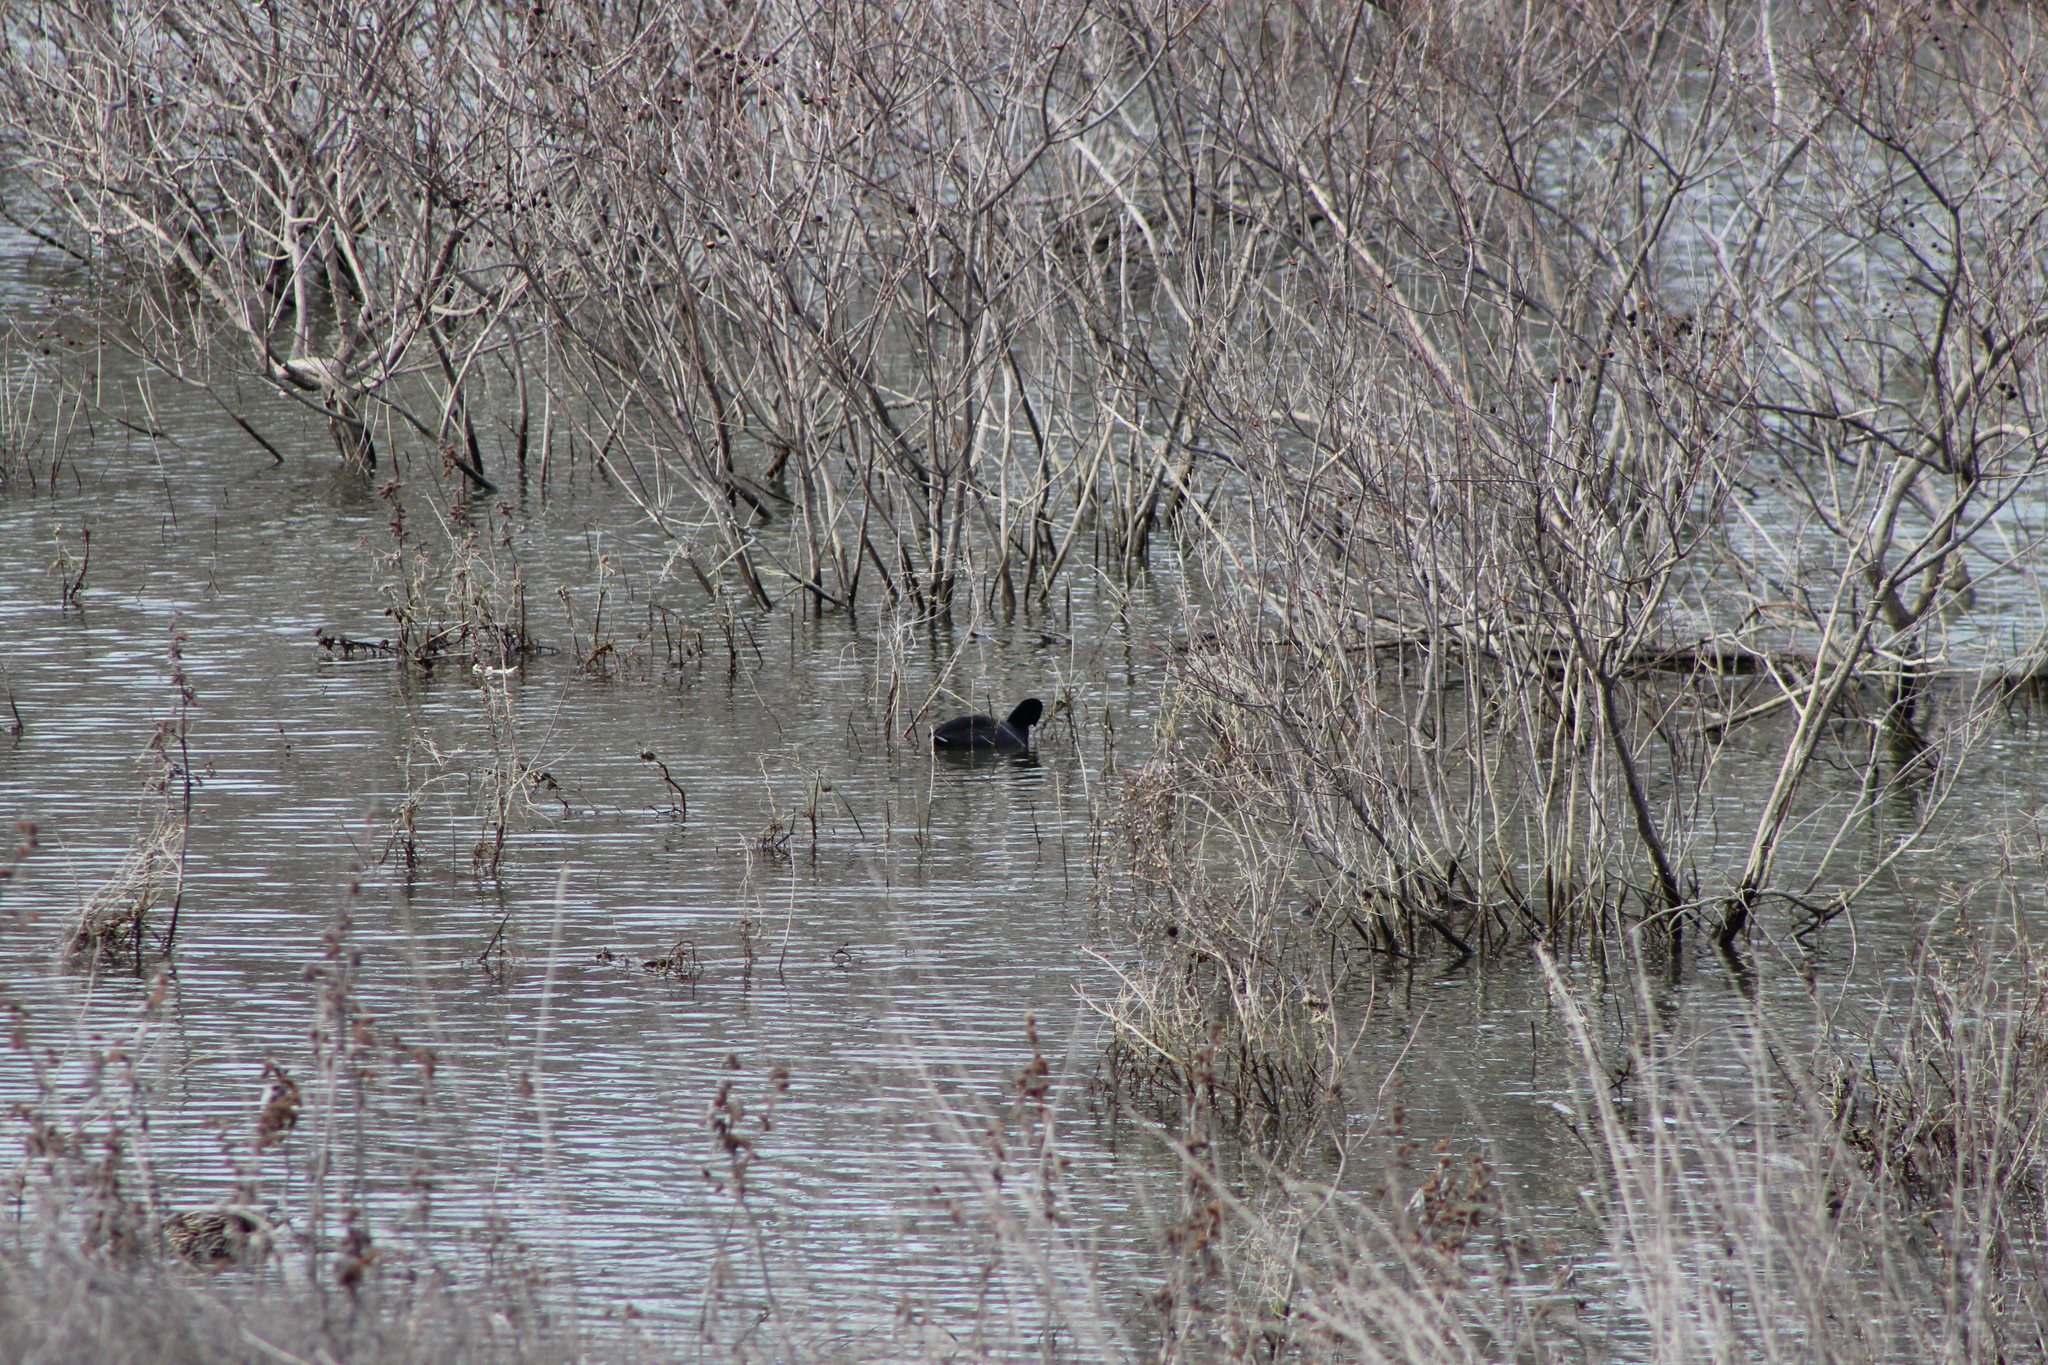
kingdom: Animalia
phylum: Chordata
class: Aves
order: Gruiformes
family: Rallidae
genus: Fulica
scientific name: Fulica americana
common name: American coot
